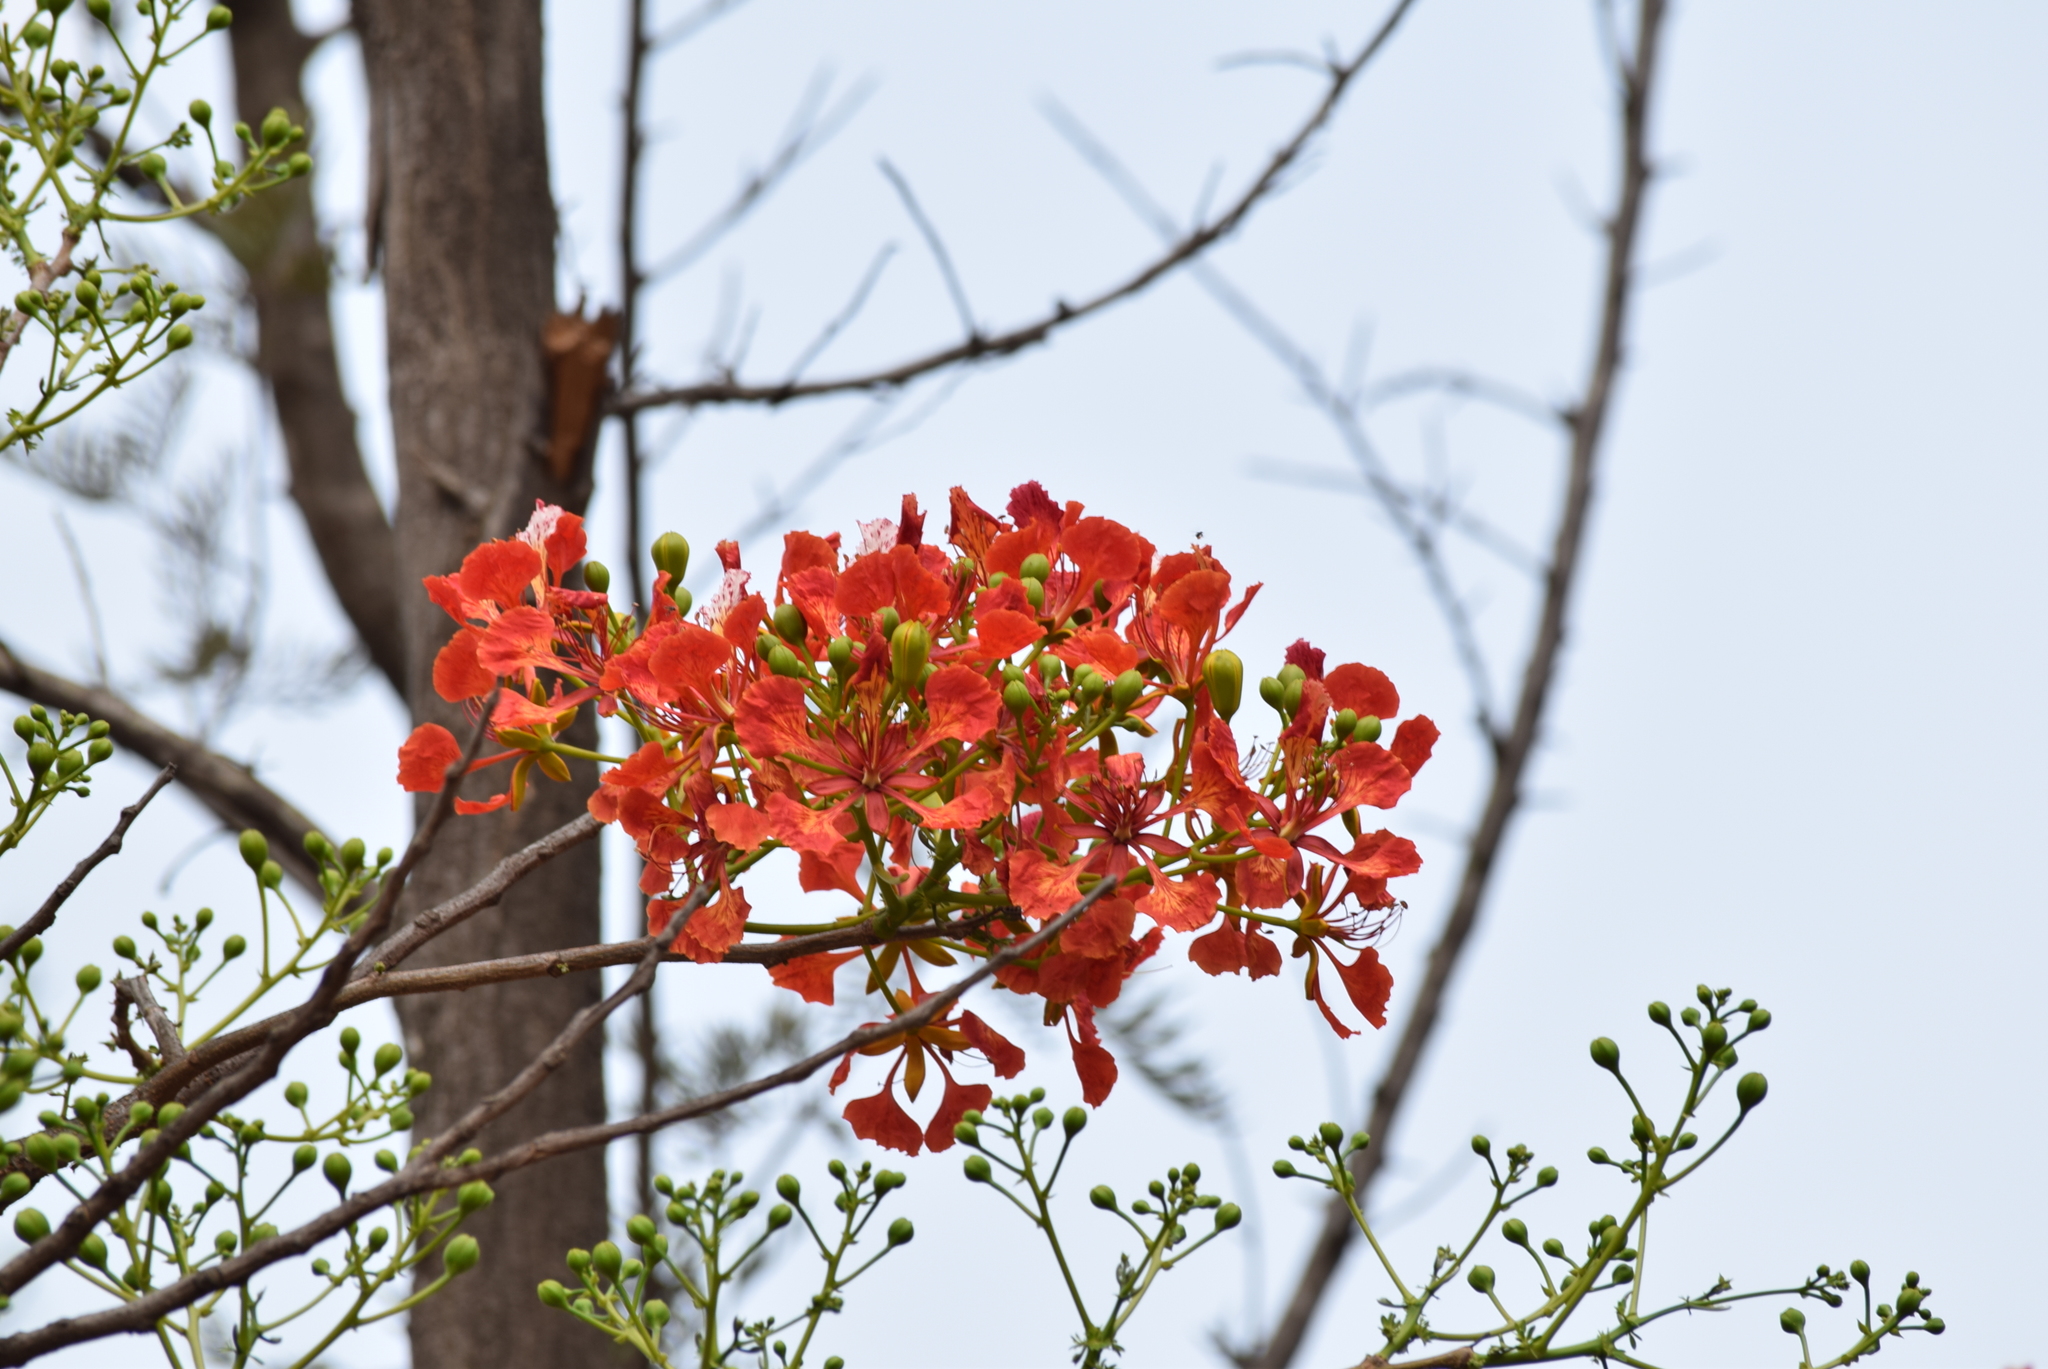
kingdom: Plantae
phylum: Tracheophyta
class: Magnoliopsida
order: Fabales
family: Fabaceae
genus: Delonix
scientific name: Delonix regia
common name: Royal poinciana
